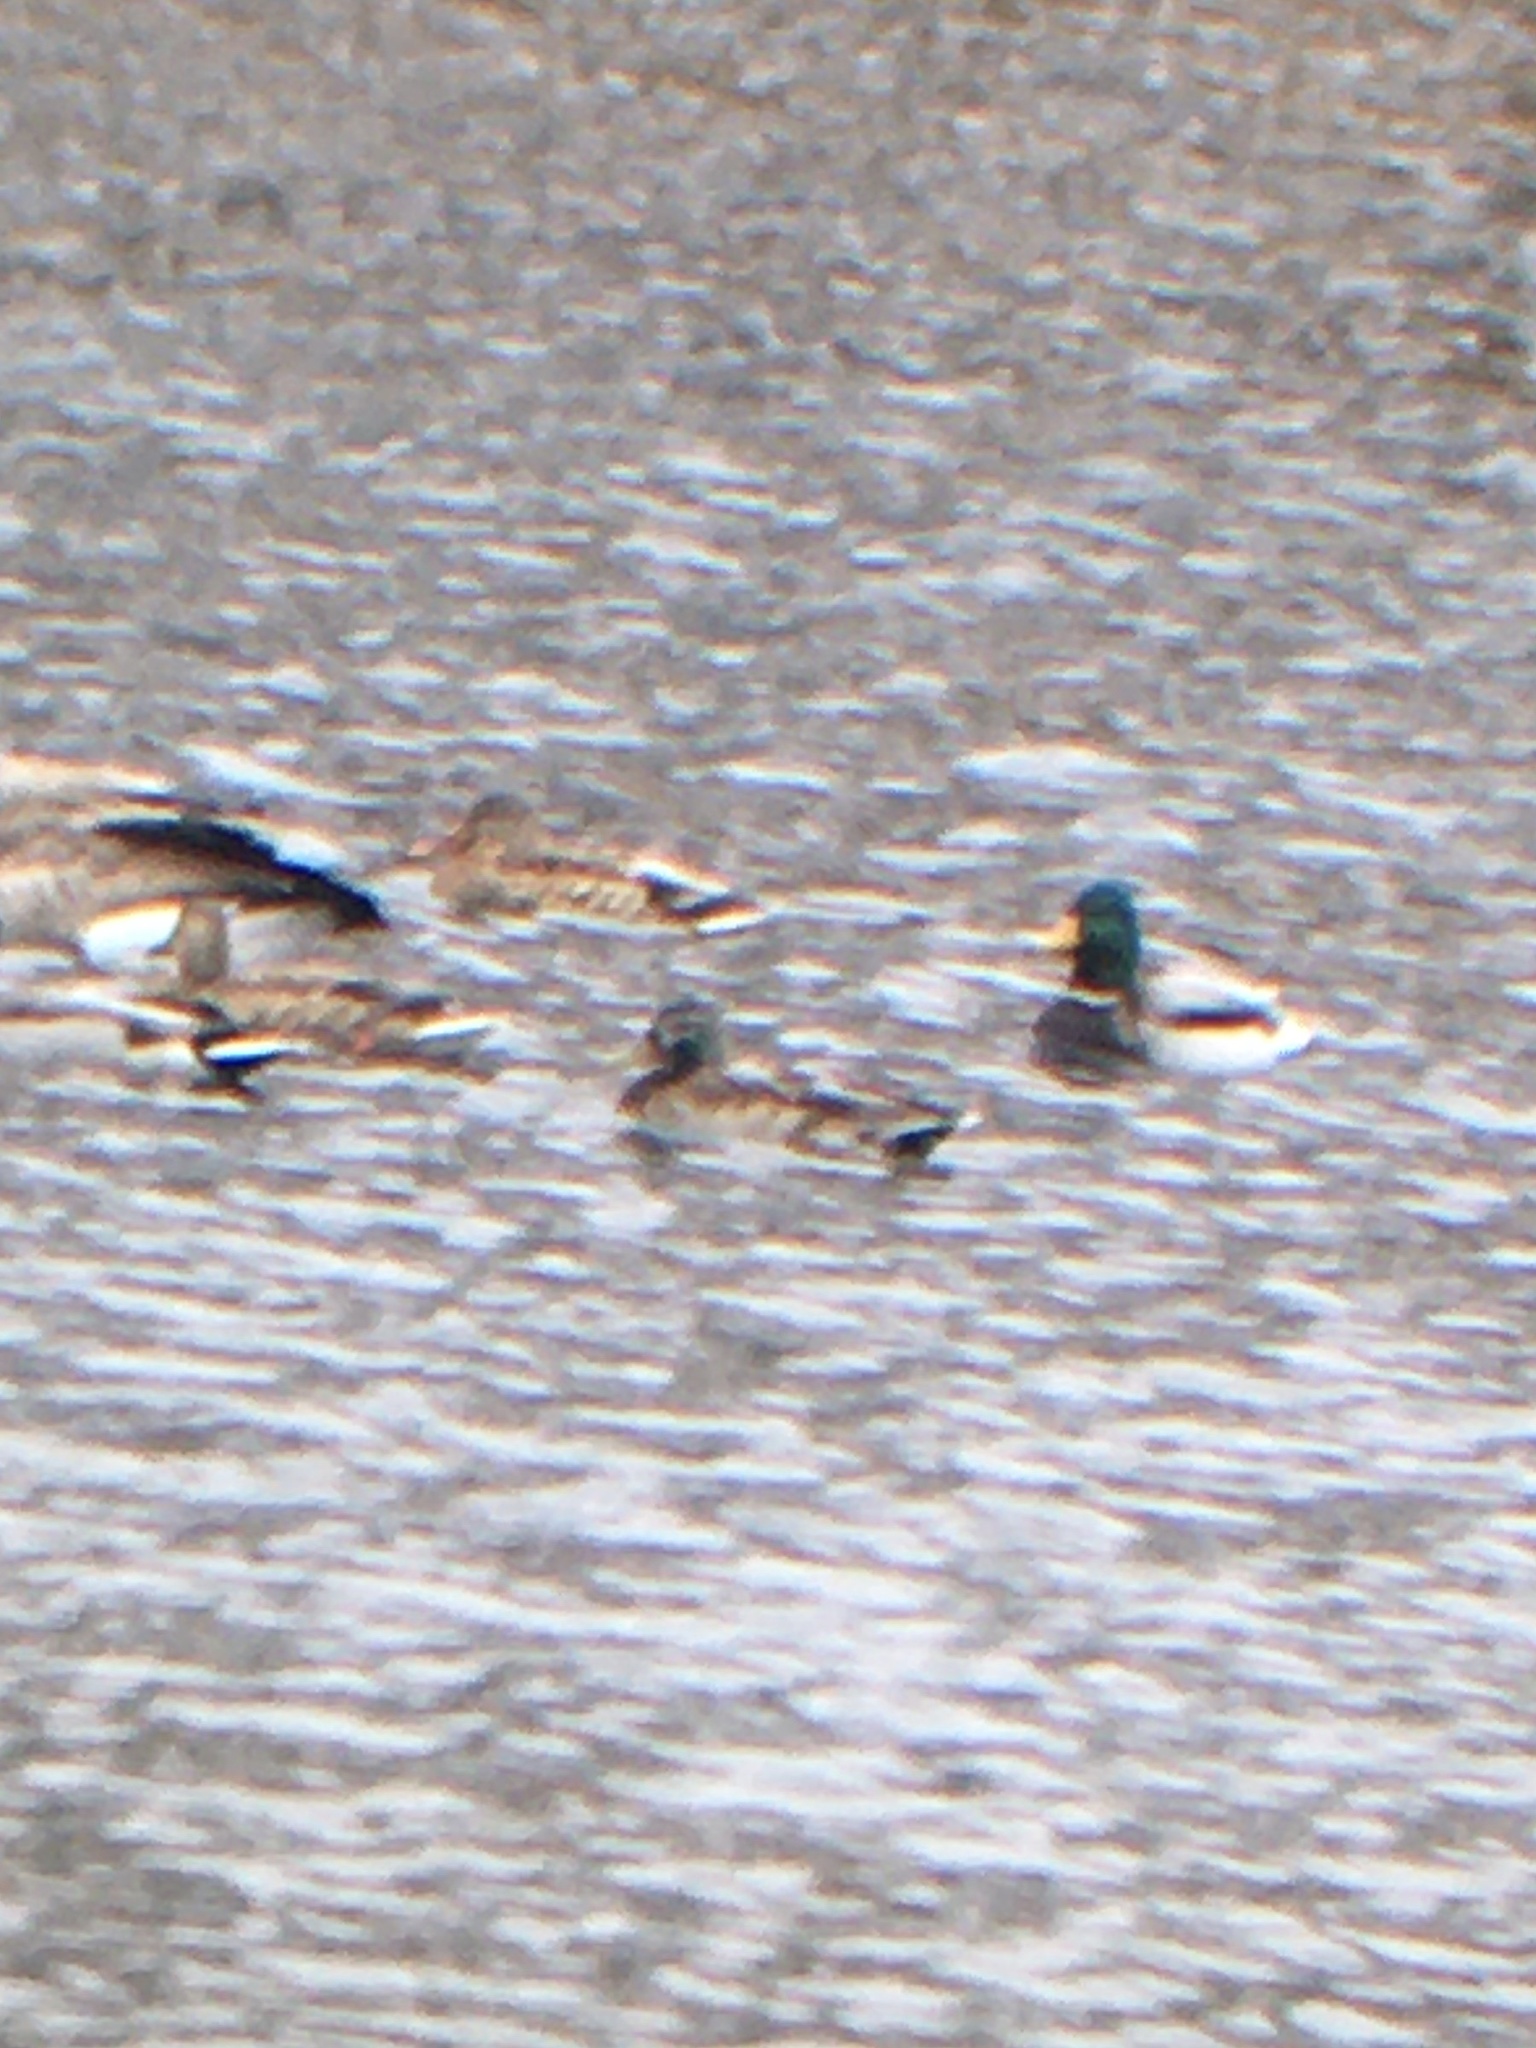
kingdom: Animalia
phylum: Chordata
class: Aves
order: Anseriformes
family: Anatidae
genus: Anas
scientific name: Anas platyrhynchos
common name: Mallard
